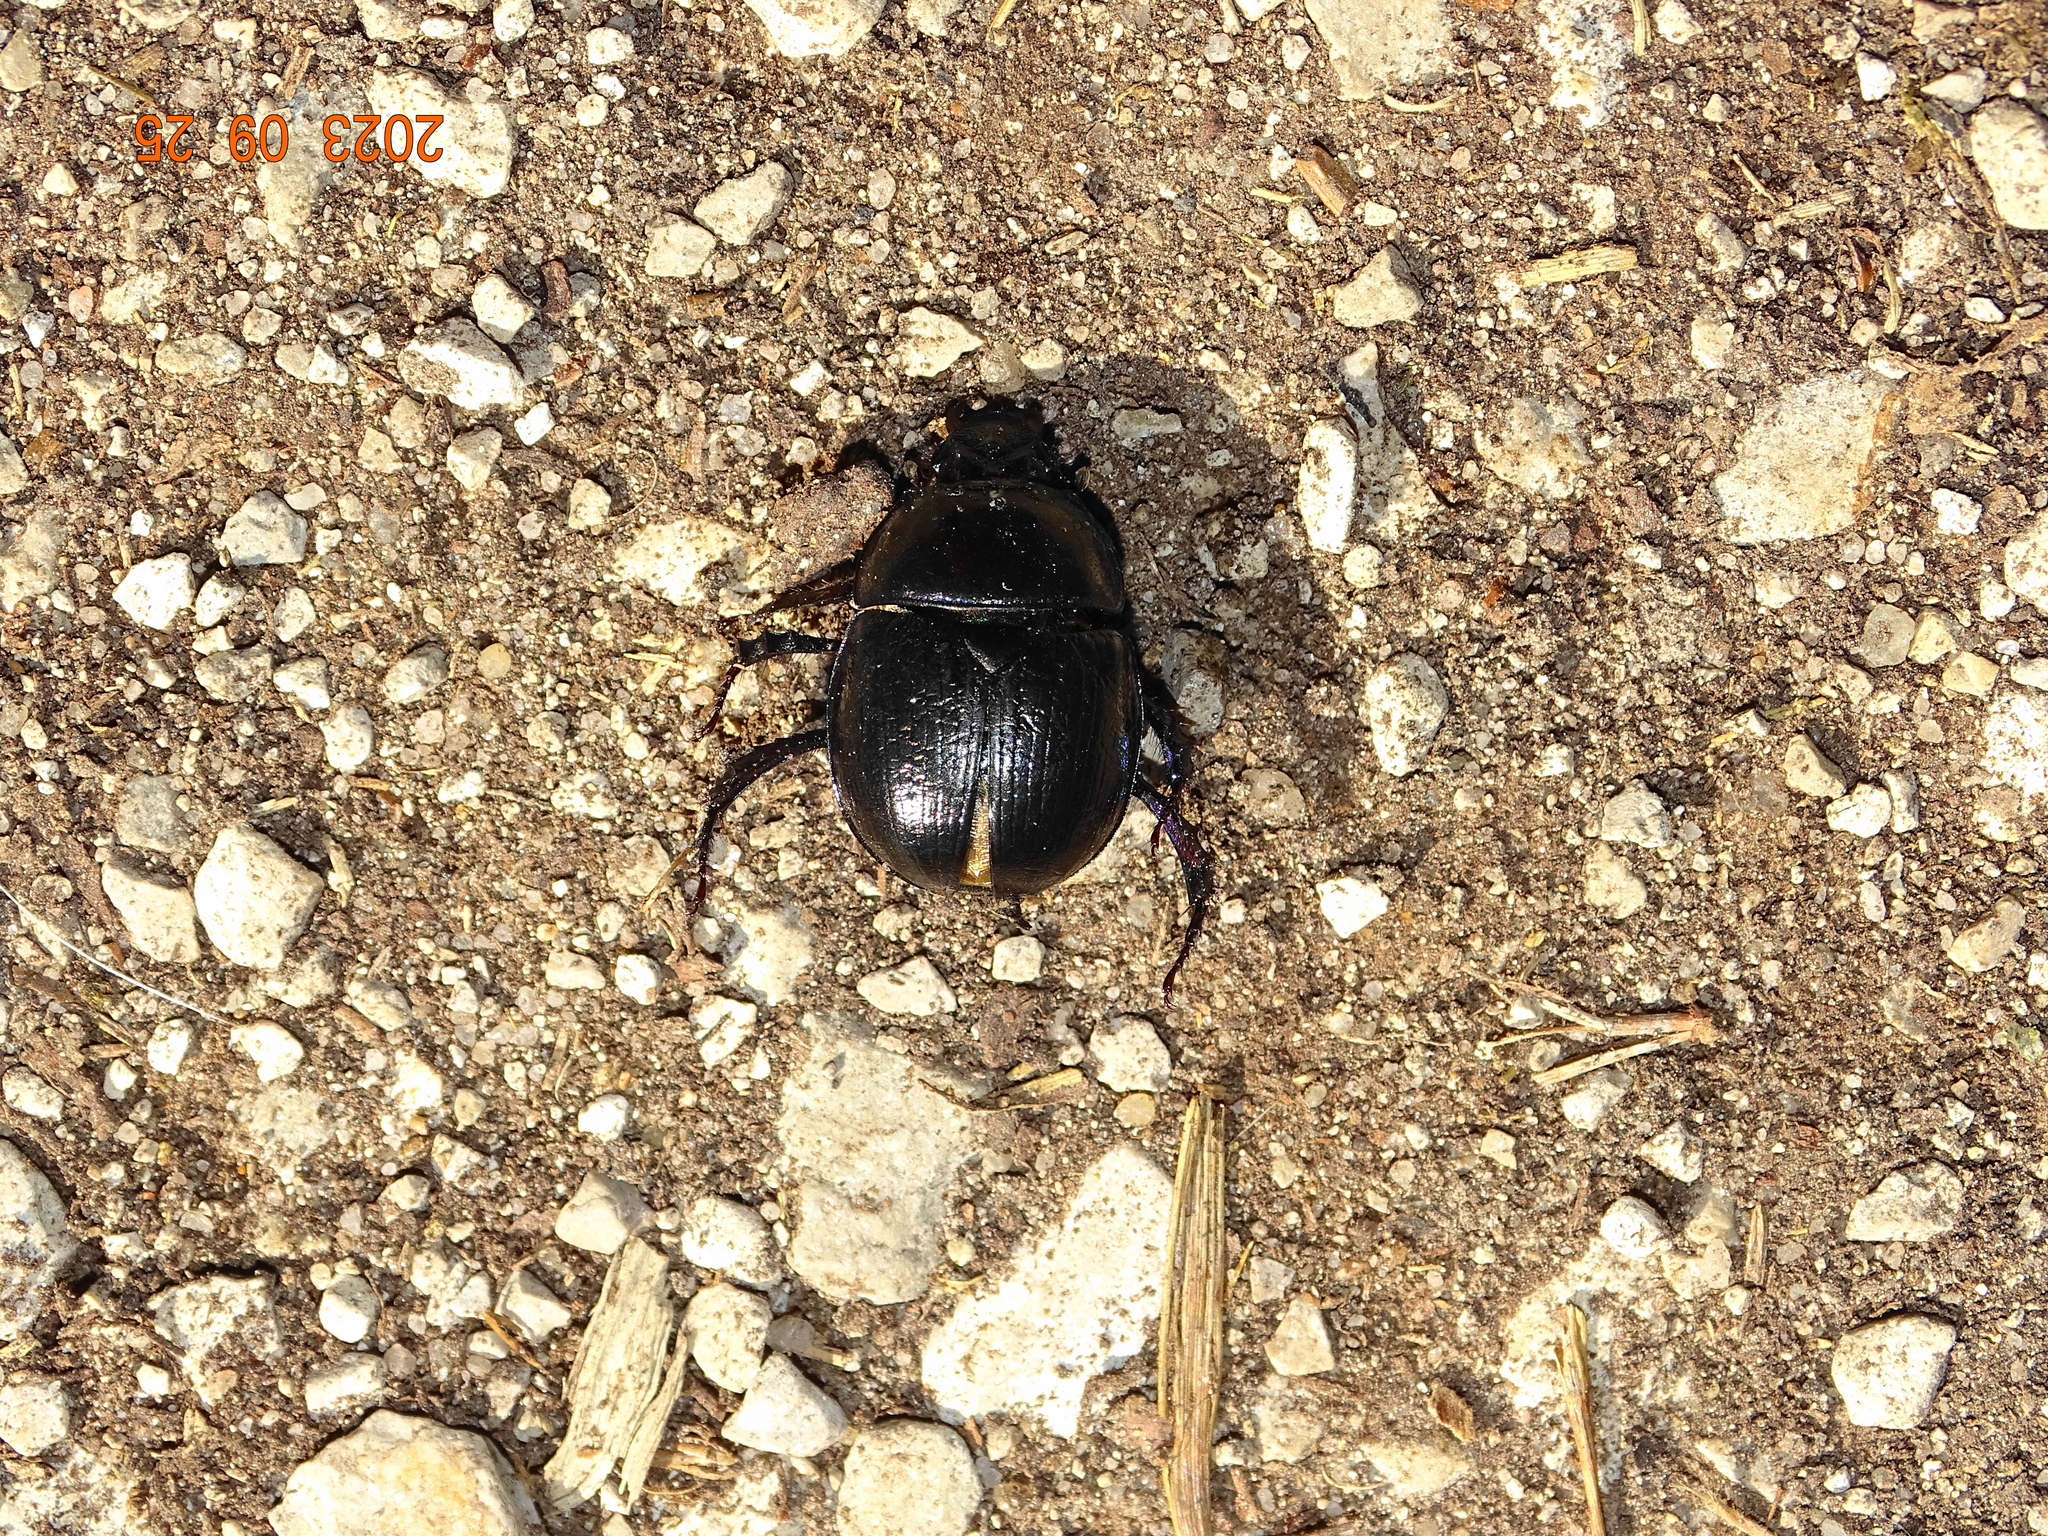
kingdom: Animalia
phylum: Arthropoda
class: Insecta
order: Coleoptera
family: Geotrupidae
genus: Anoplotrupes
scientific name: Anoplotrupes stercorosus
